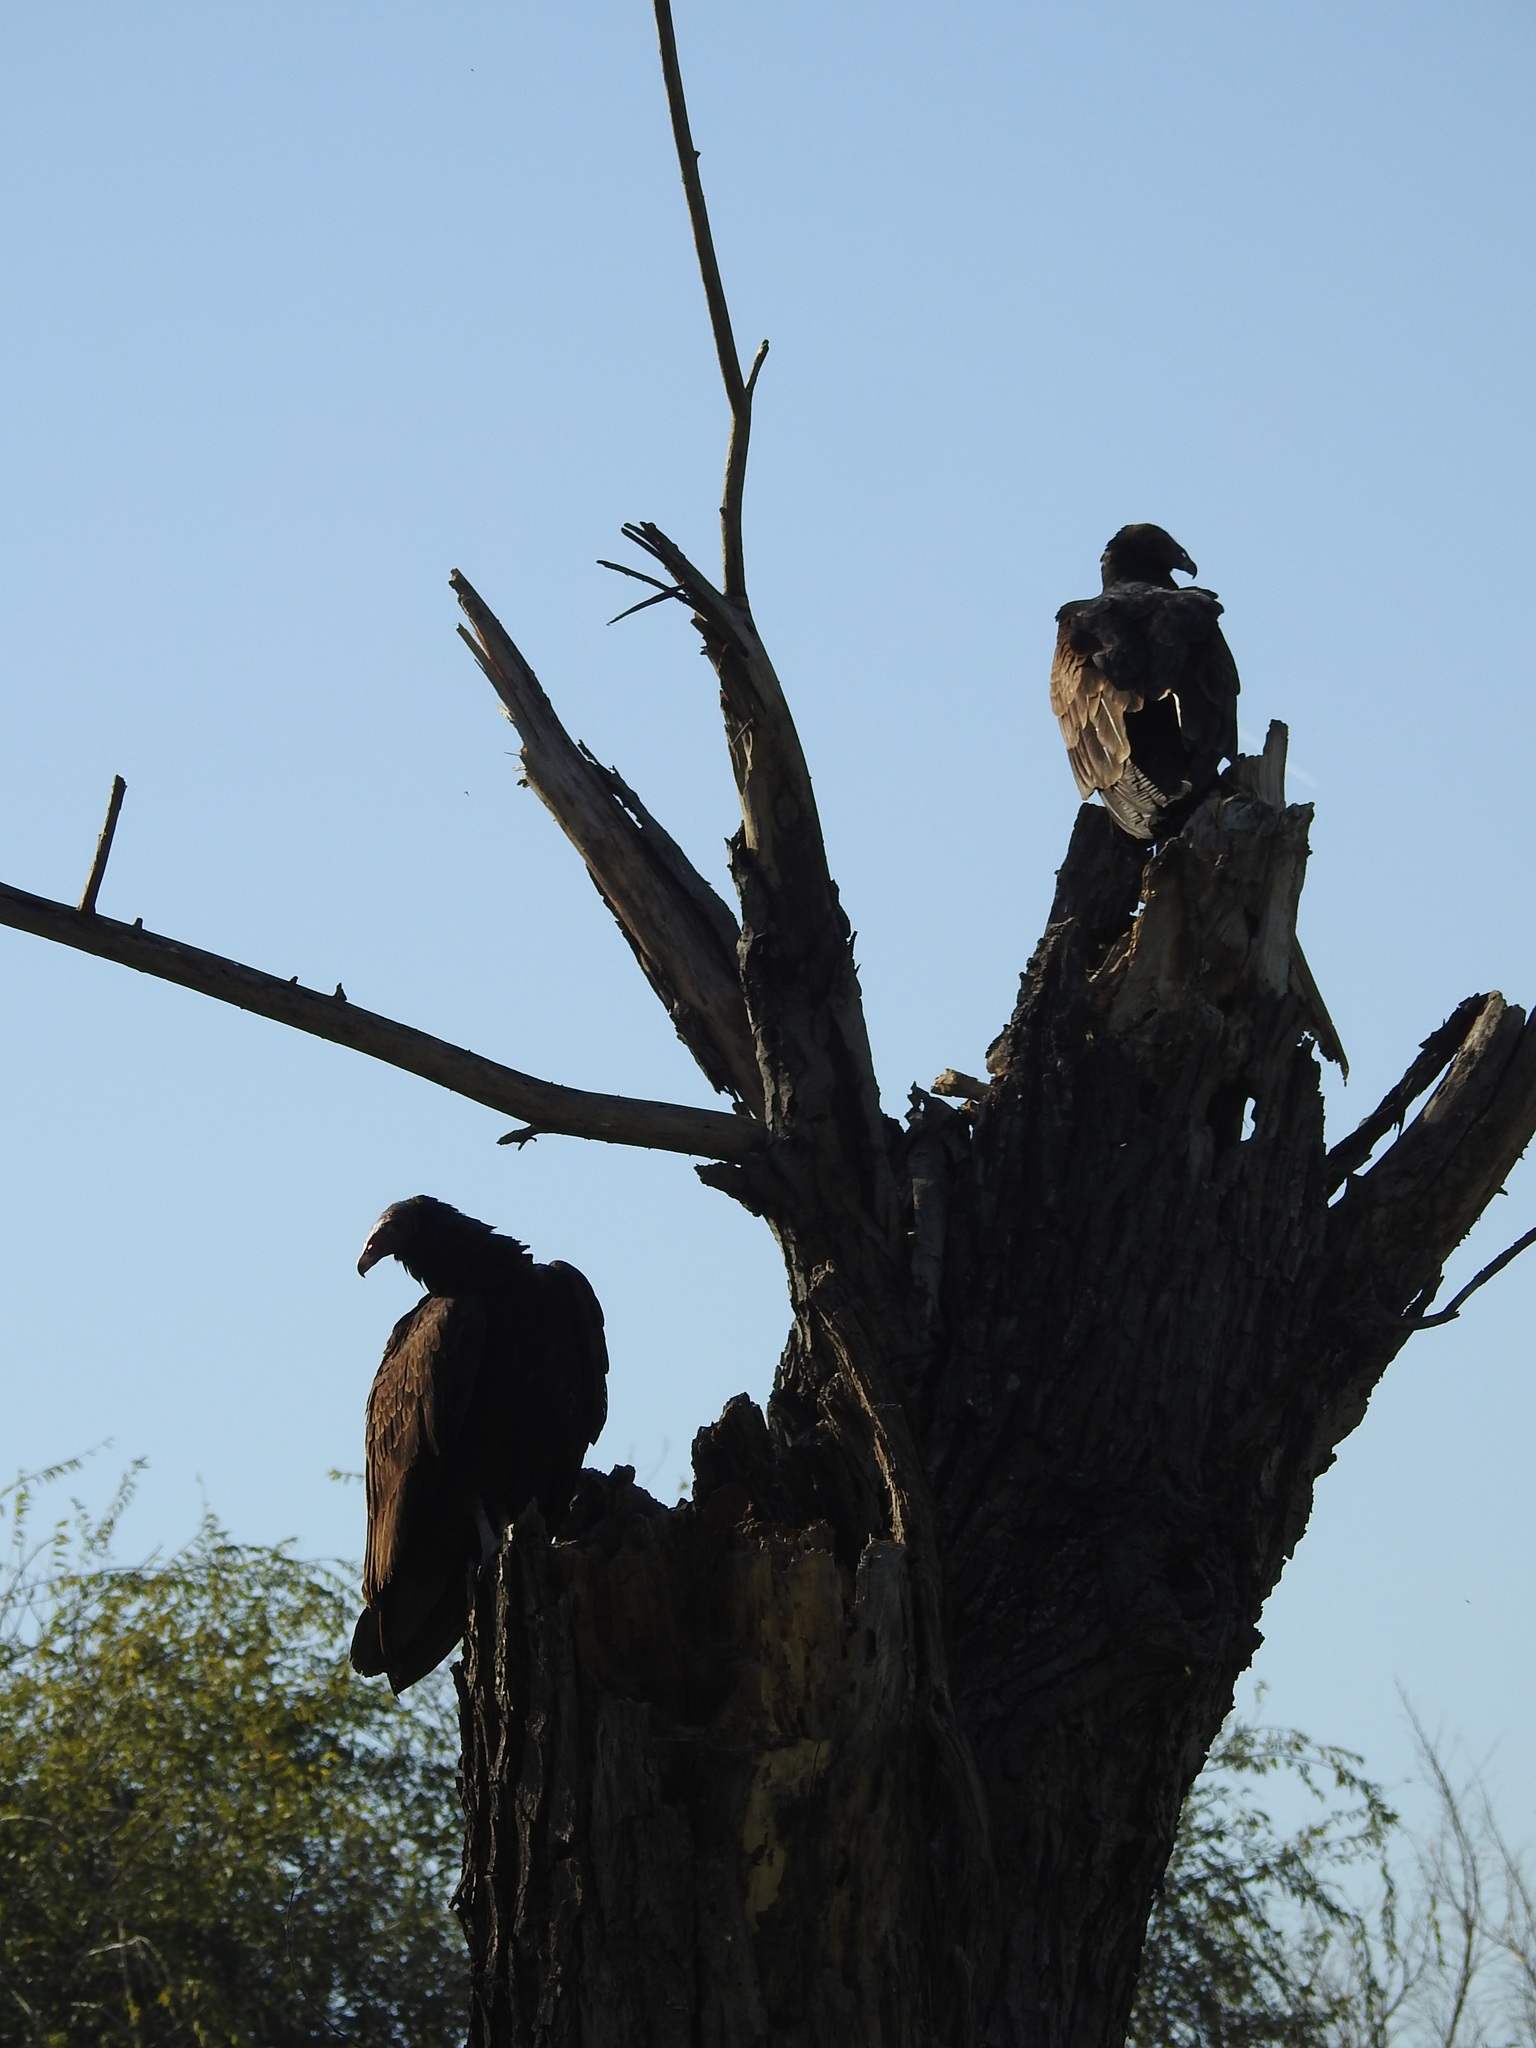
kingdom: Animalia
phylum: Chordata
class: Aves
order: Accipitriformes
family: Cathartidae
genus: Cathartes
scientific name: Cathartes aura
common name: Turkey vulture
